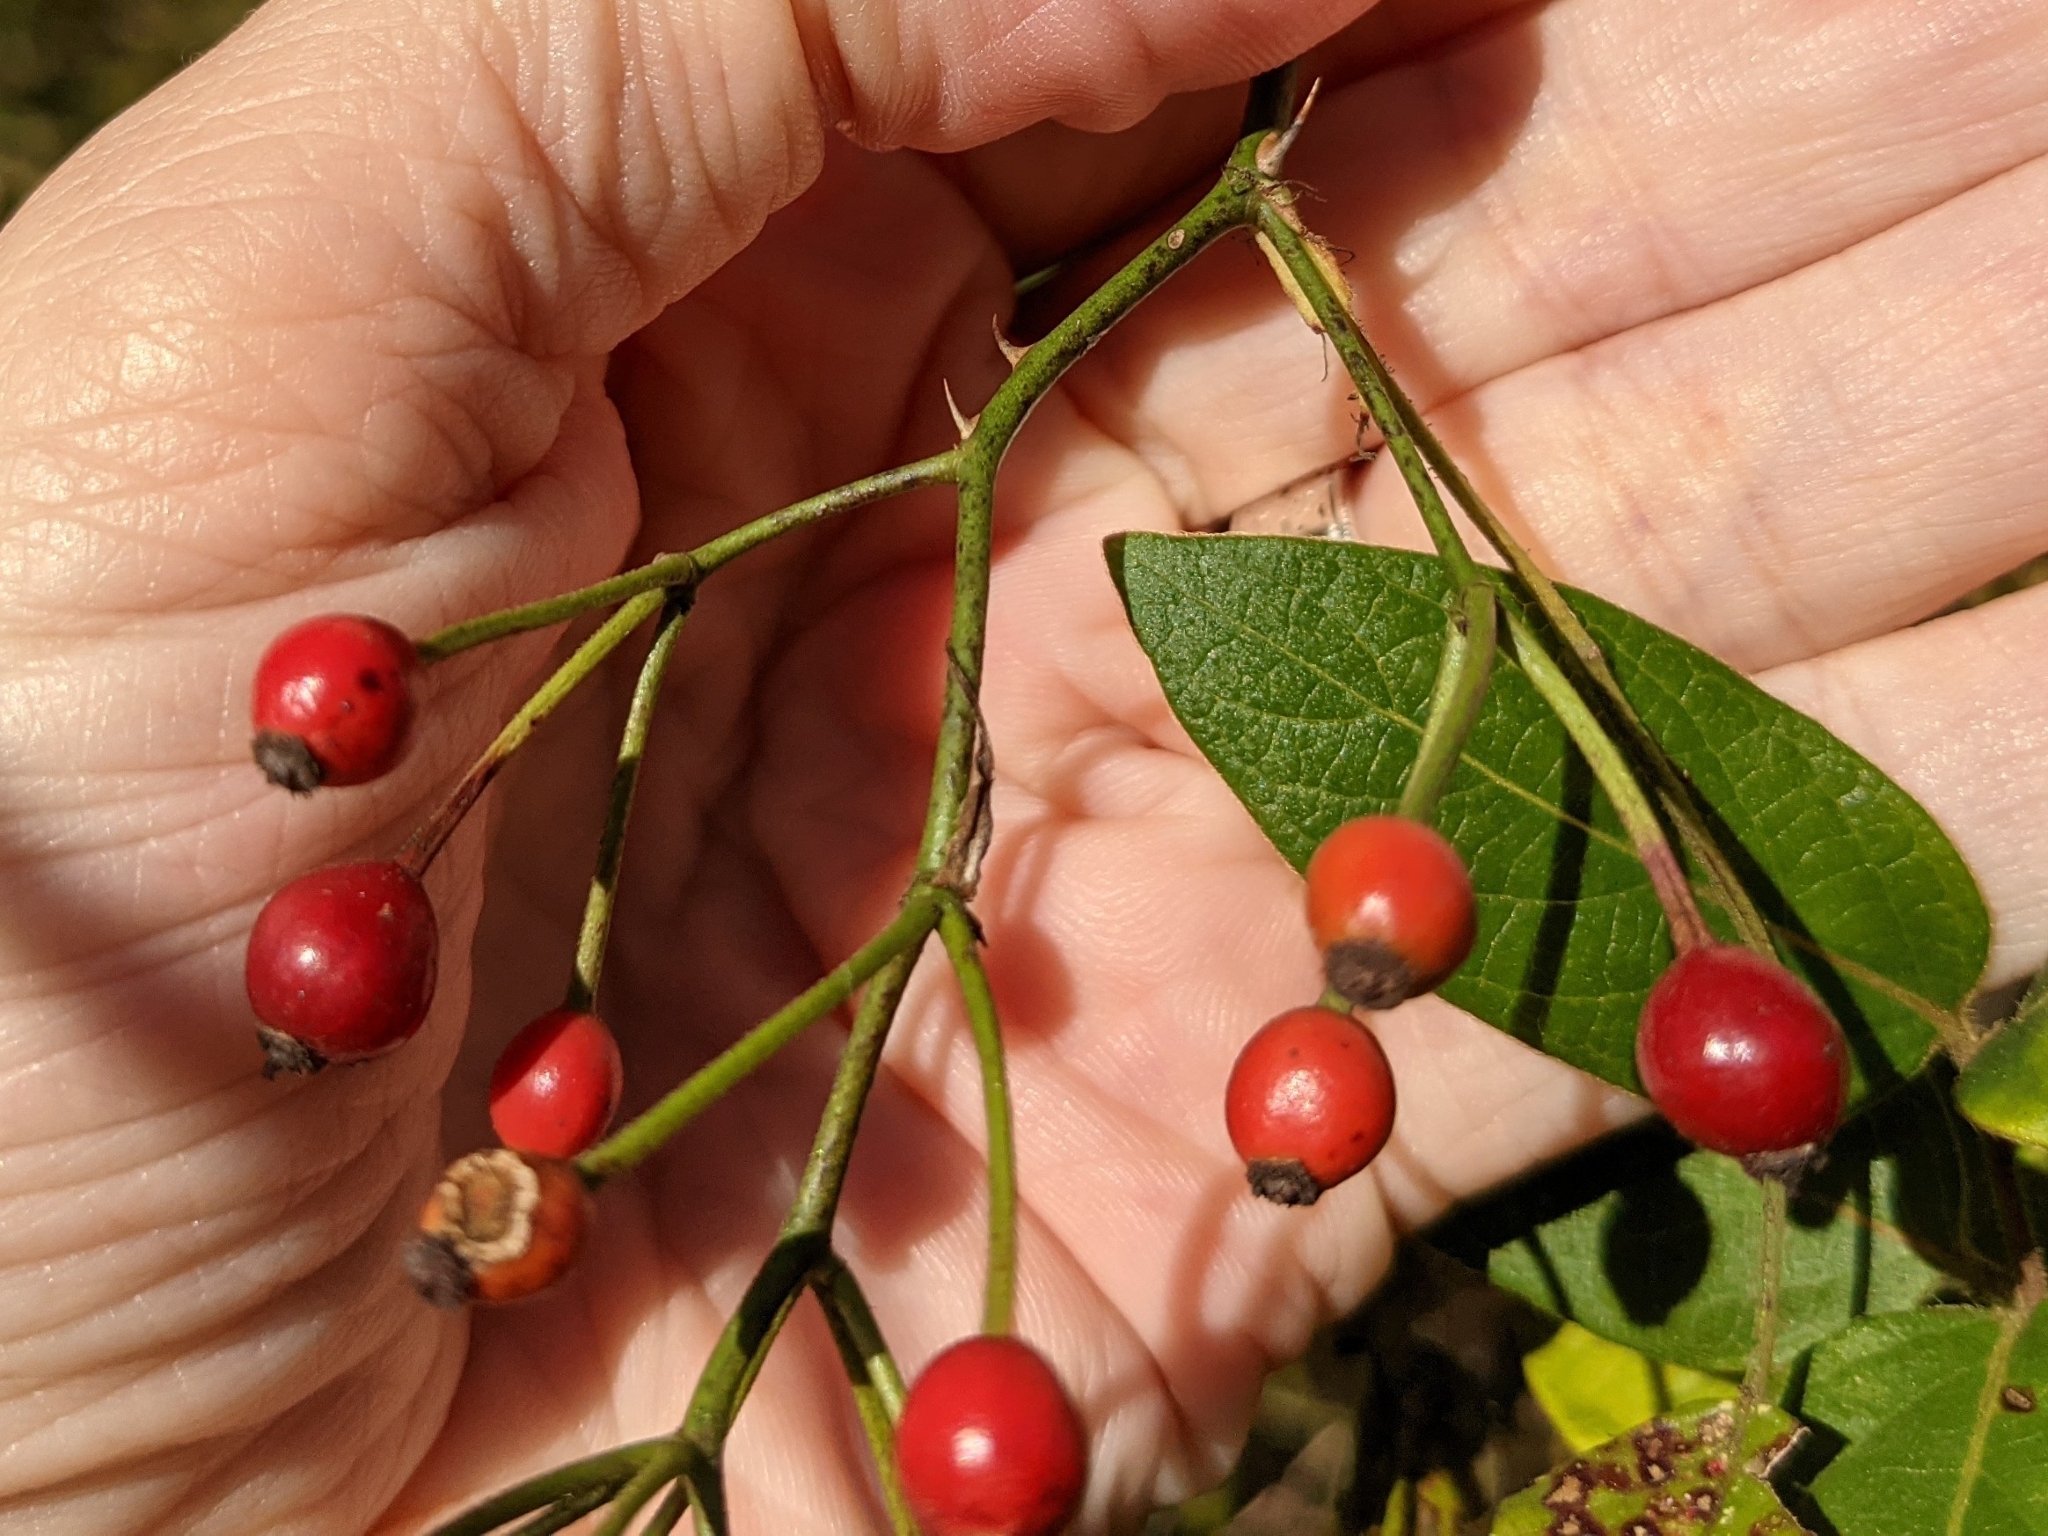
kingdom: Plantae
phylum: Tracheophyta
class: Magnoliopsida
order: Rosales
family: Rosaceae
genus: Rosa
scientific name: Rosa multiflora
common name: Multiflora rose
